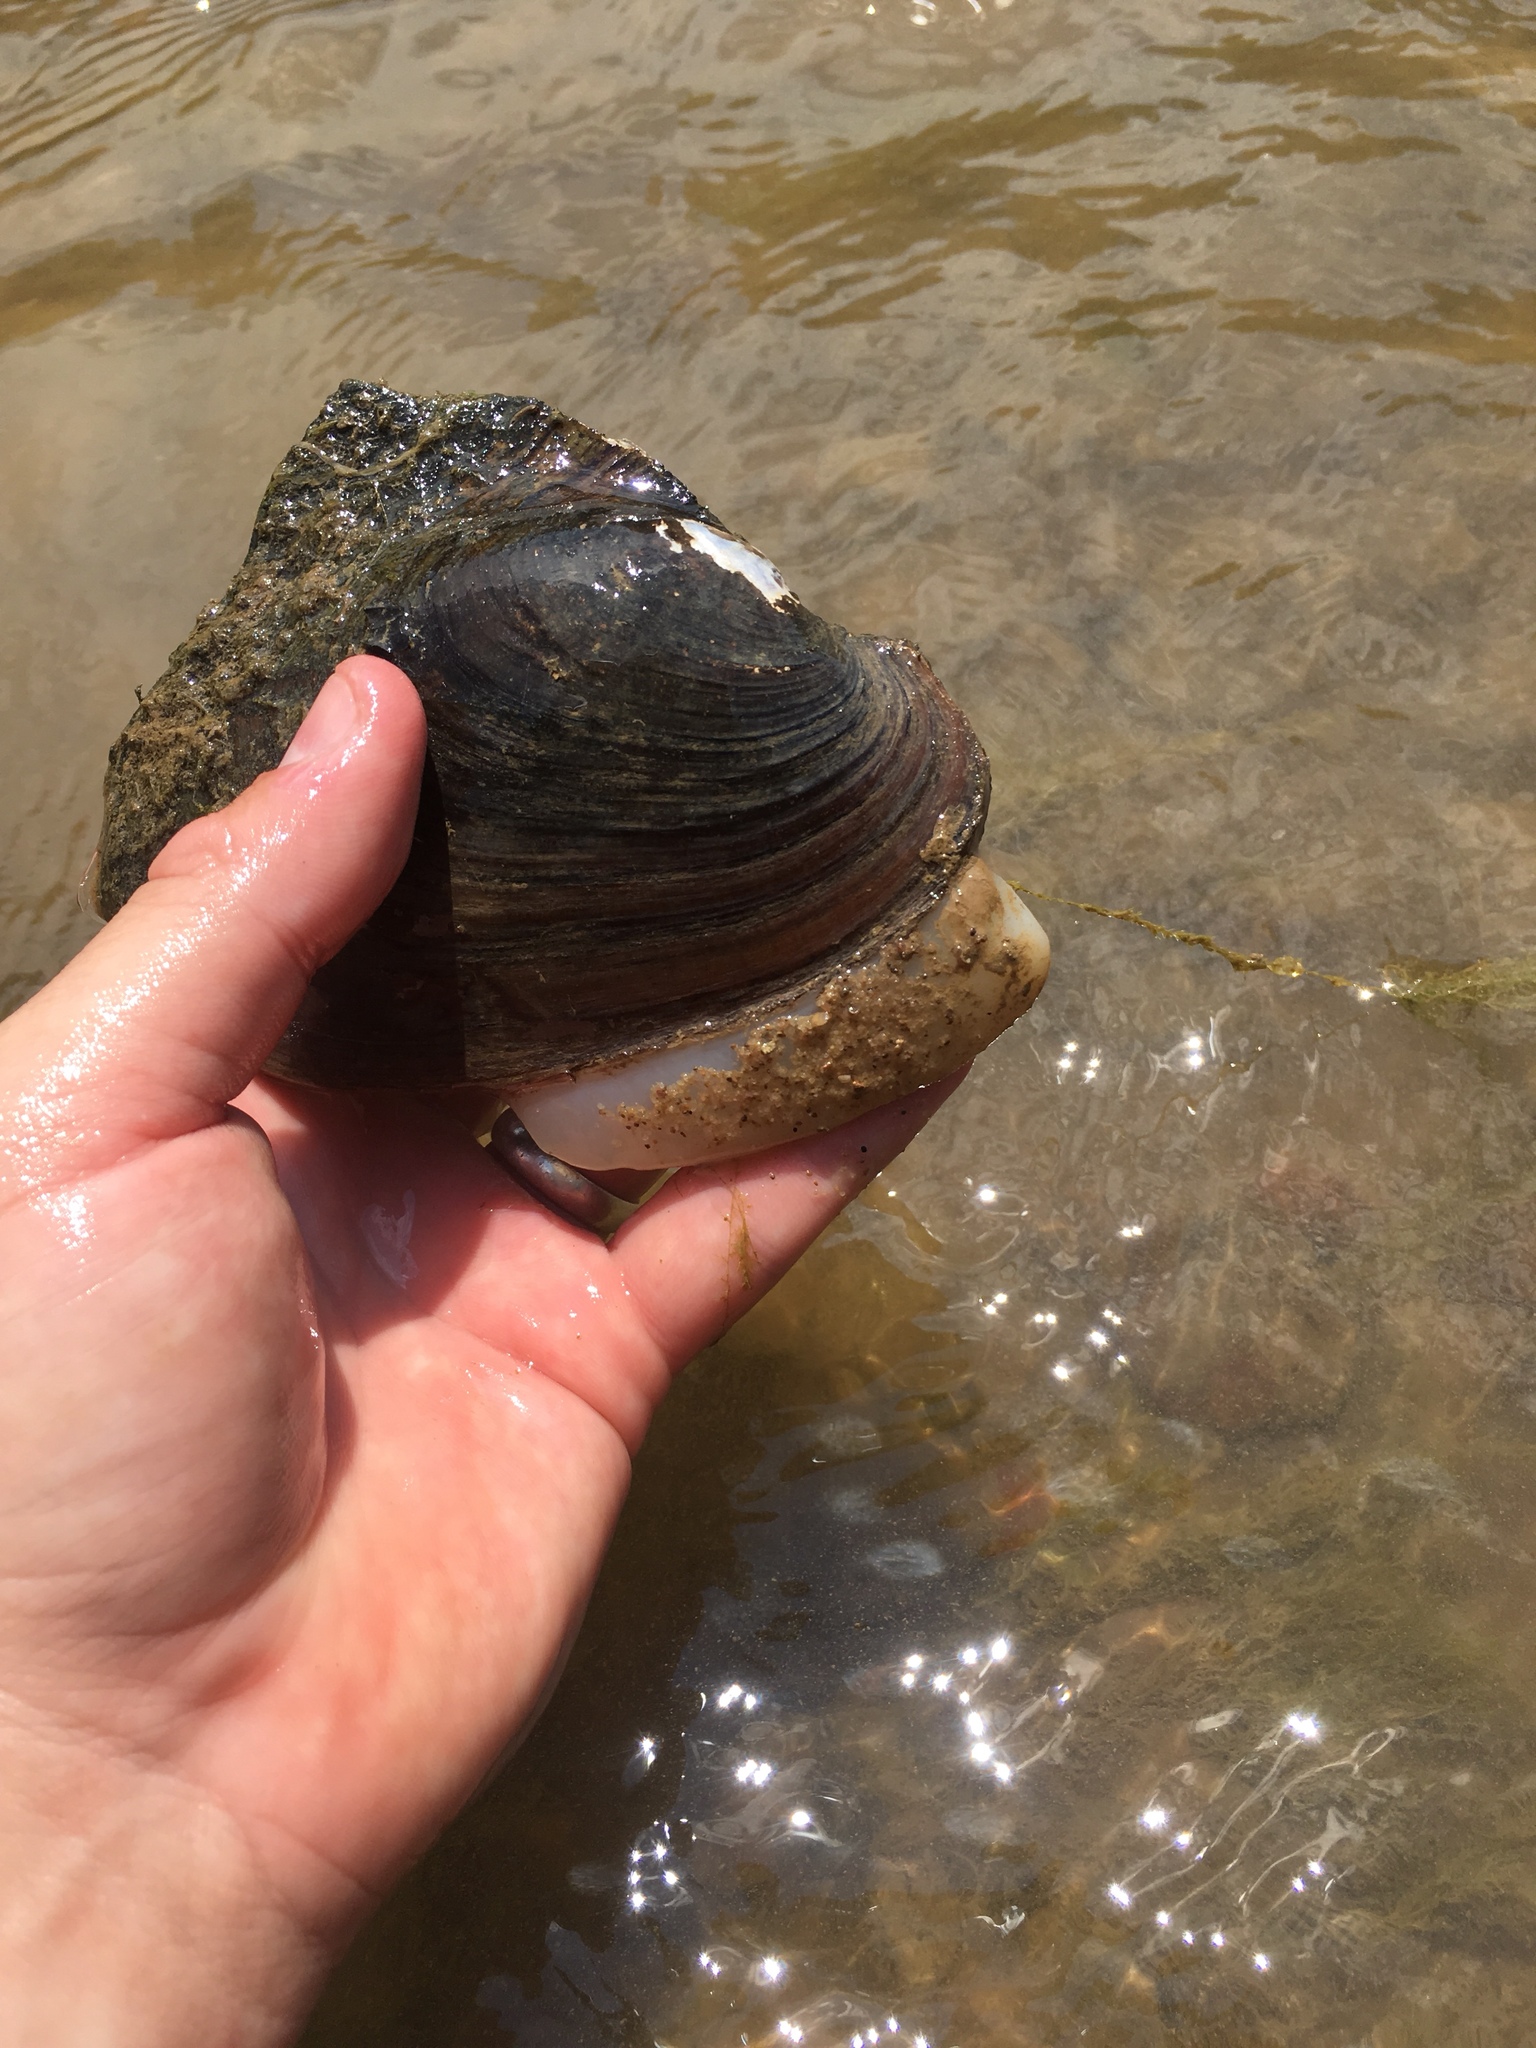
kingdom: Animalia
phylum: Mollusca
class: Bivalvia
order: Unionida
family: Unionidae
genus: Potamilus
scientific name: Potamilus alatus
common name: Pink heelsplitter
